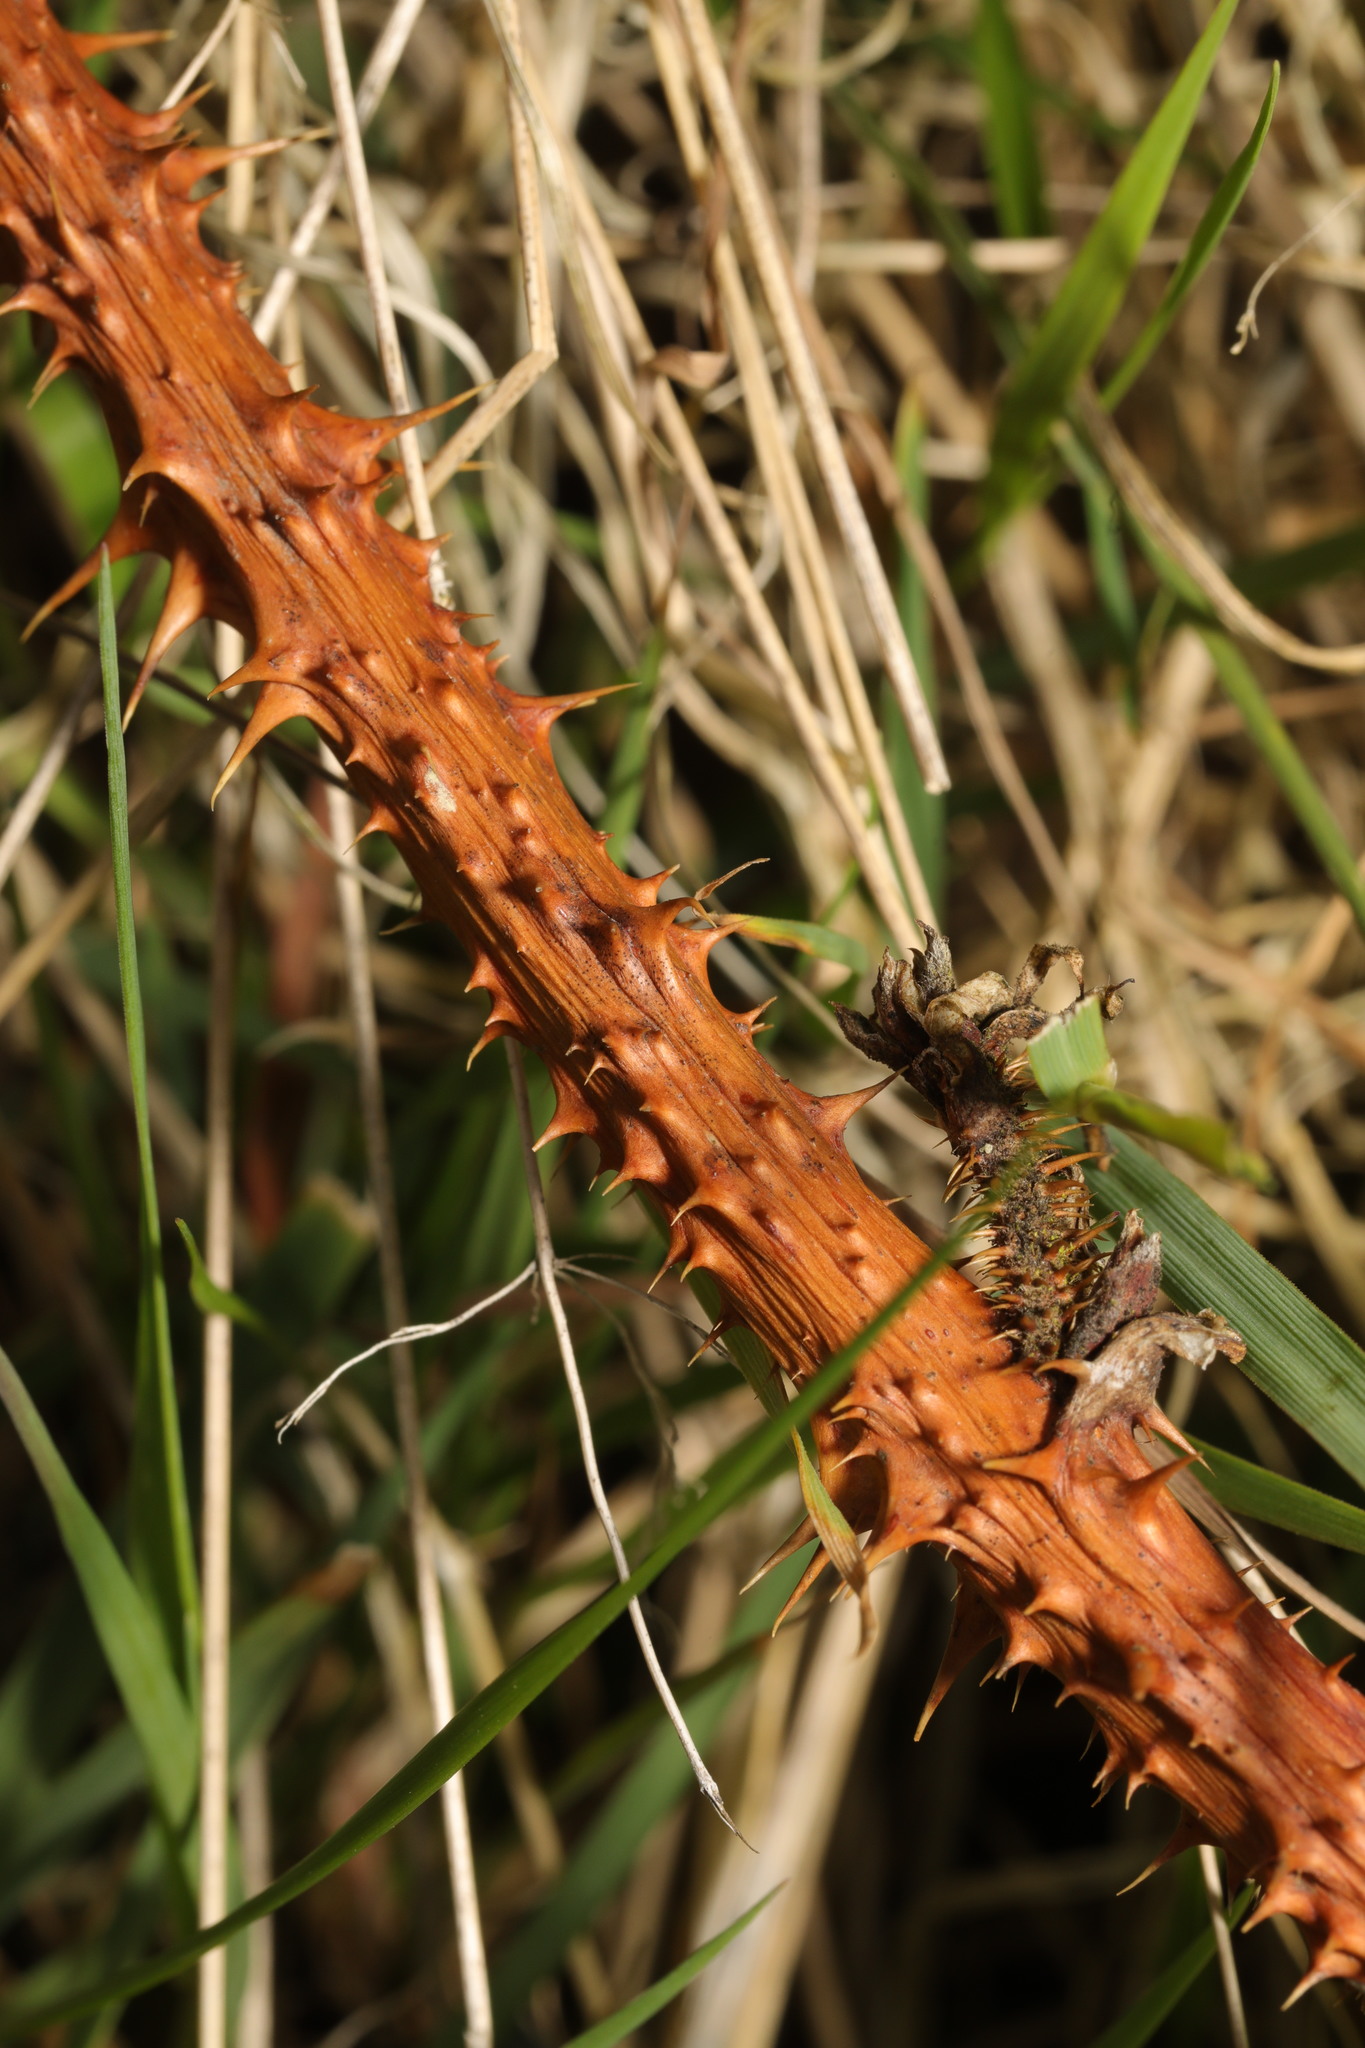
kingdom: Plantae
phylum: Tracheophyta
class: Magnoliopsida
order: Rosales
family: Rosaceae
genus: Rubus
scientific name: Rubus horrefactus
